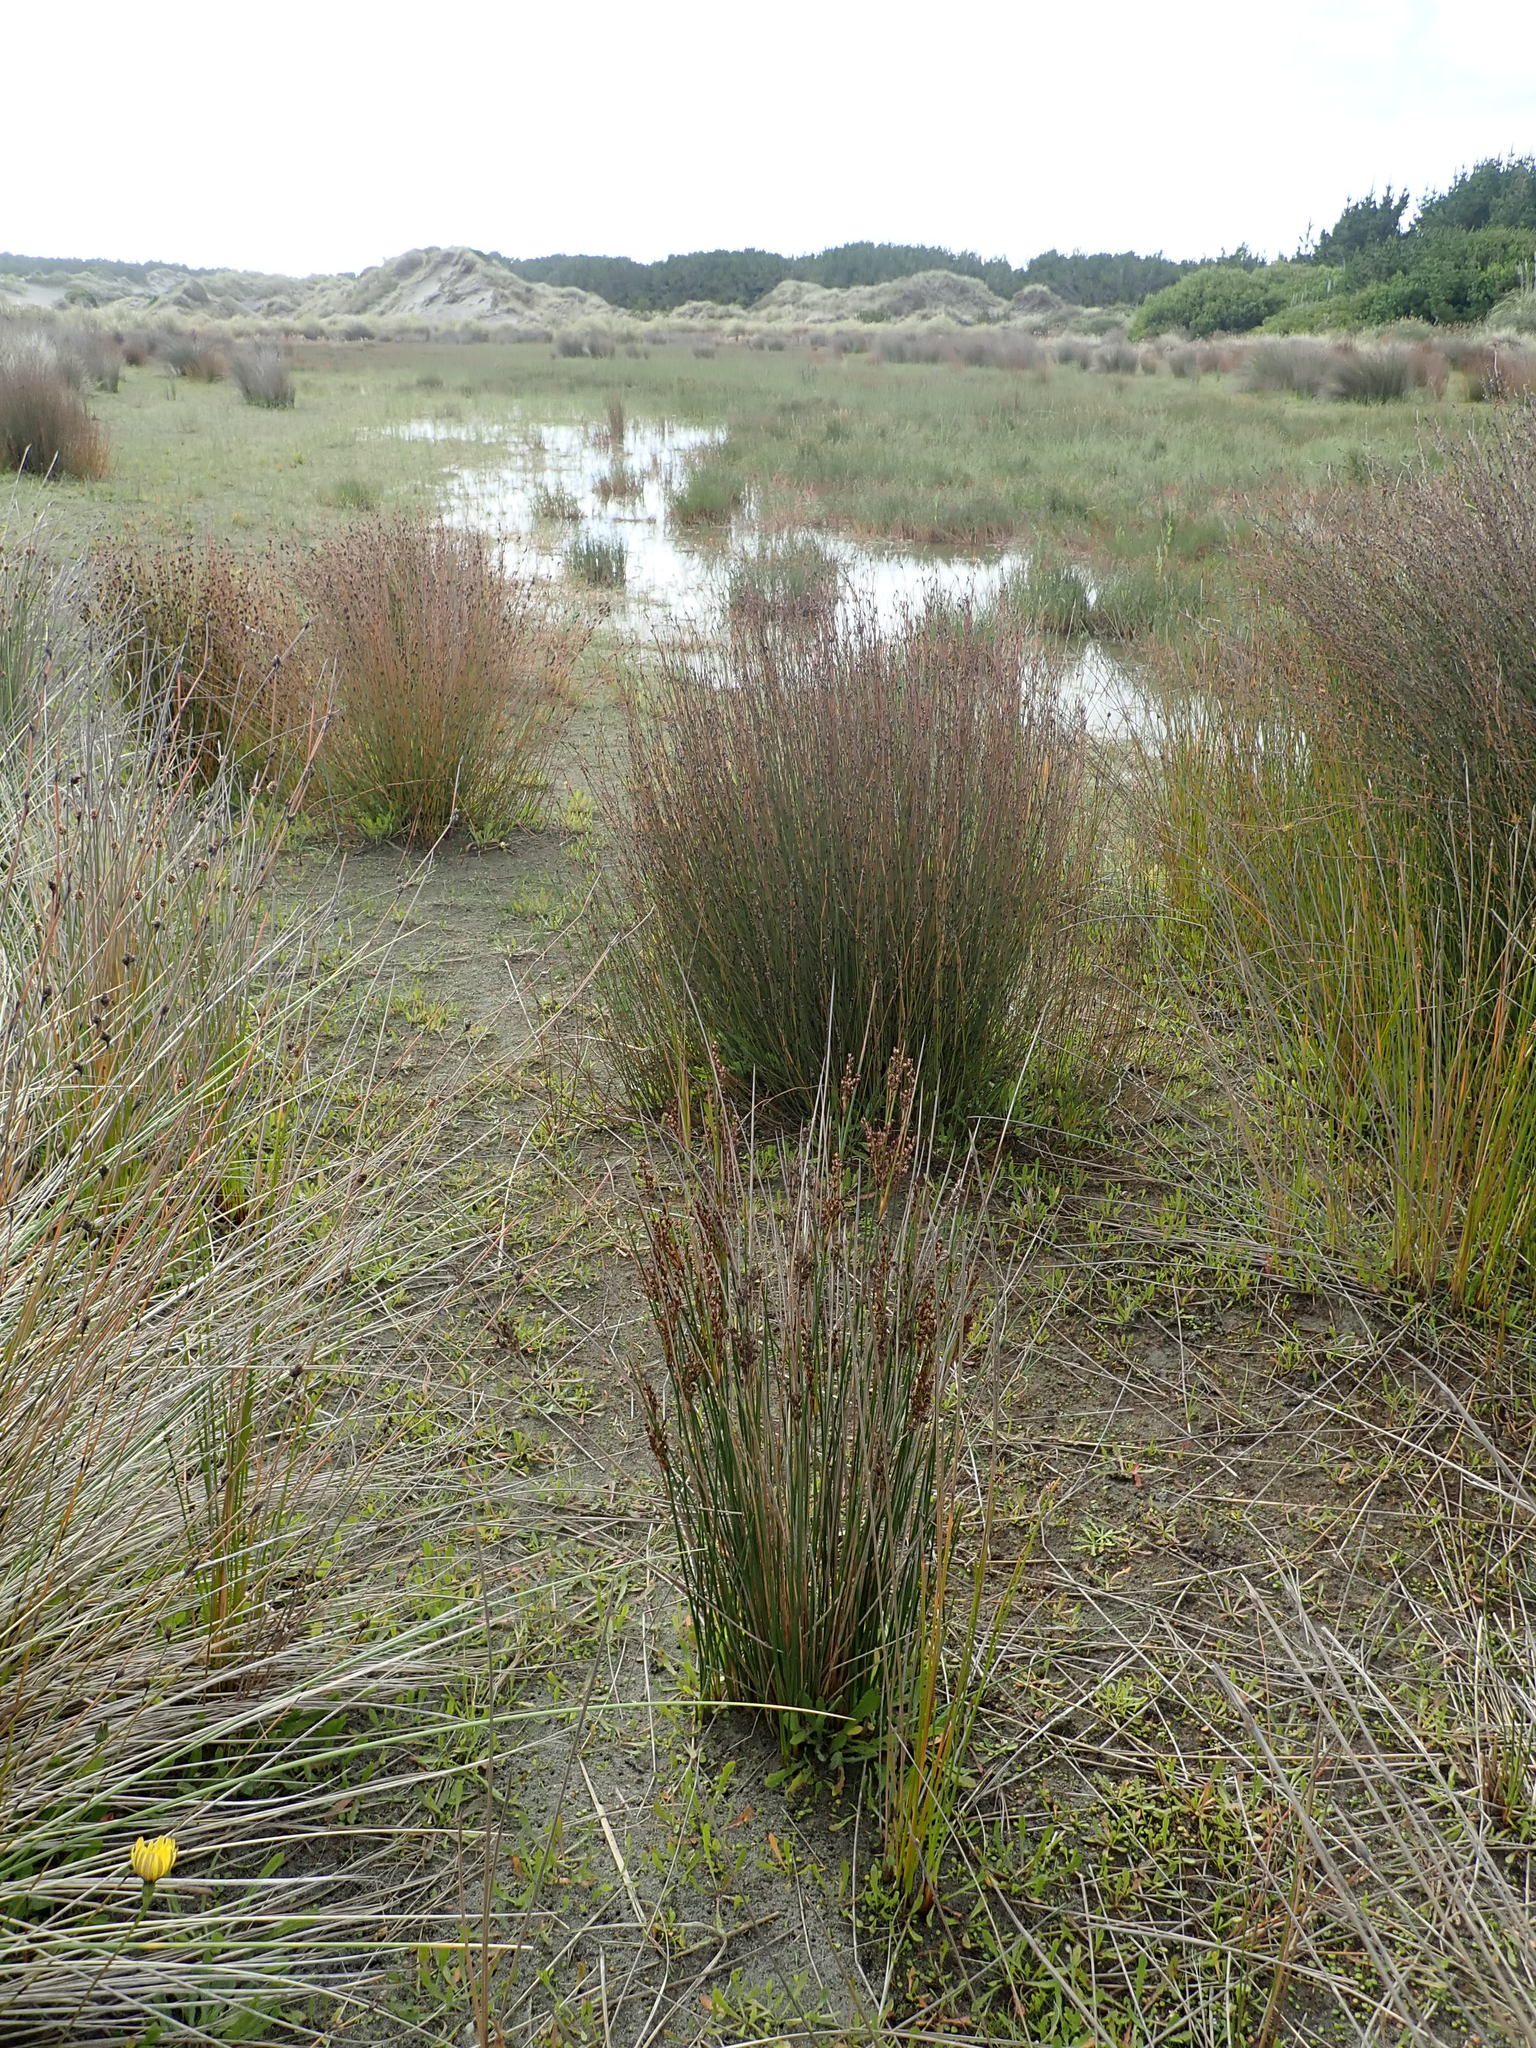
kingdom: Plantae
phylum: Tracheophyta
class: Liliopsida
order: Poales
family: Juncaceae
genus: Juncus
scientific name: Juncus kraussii
